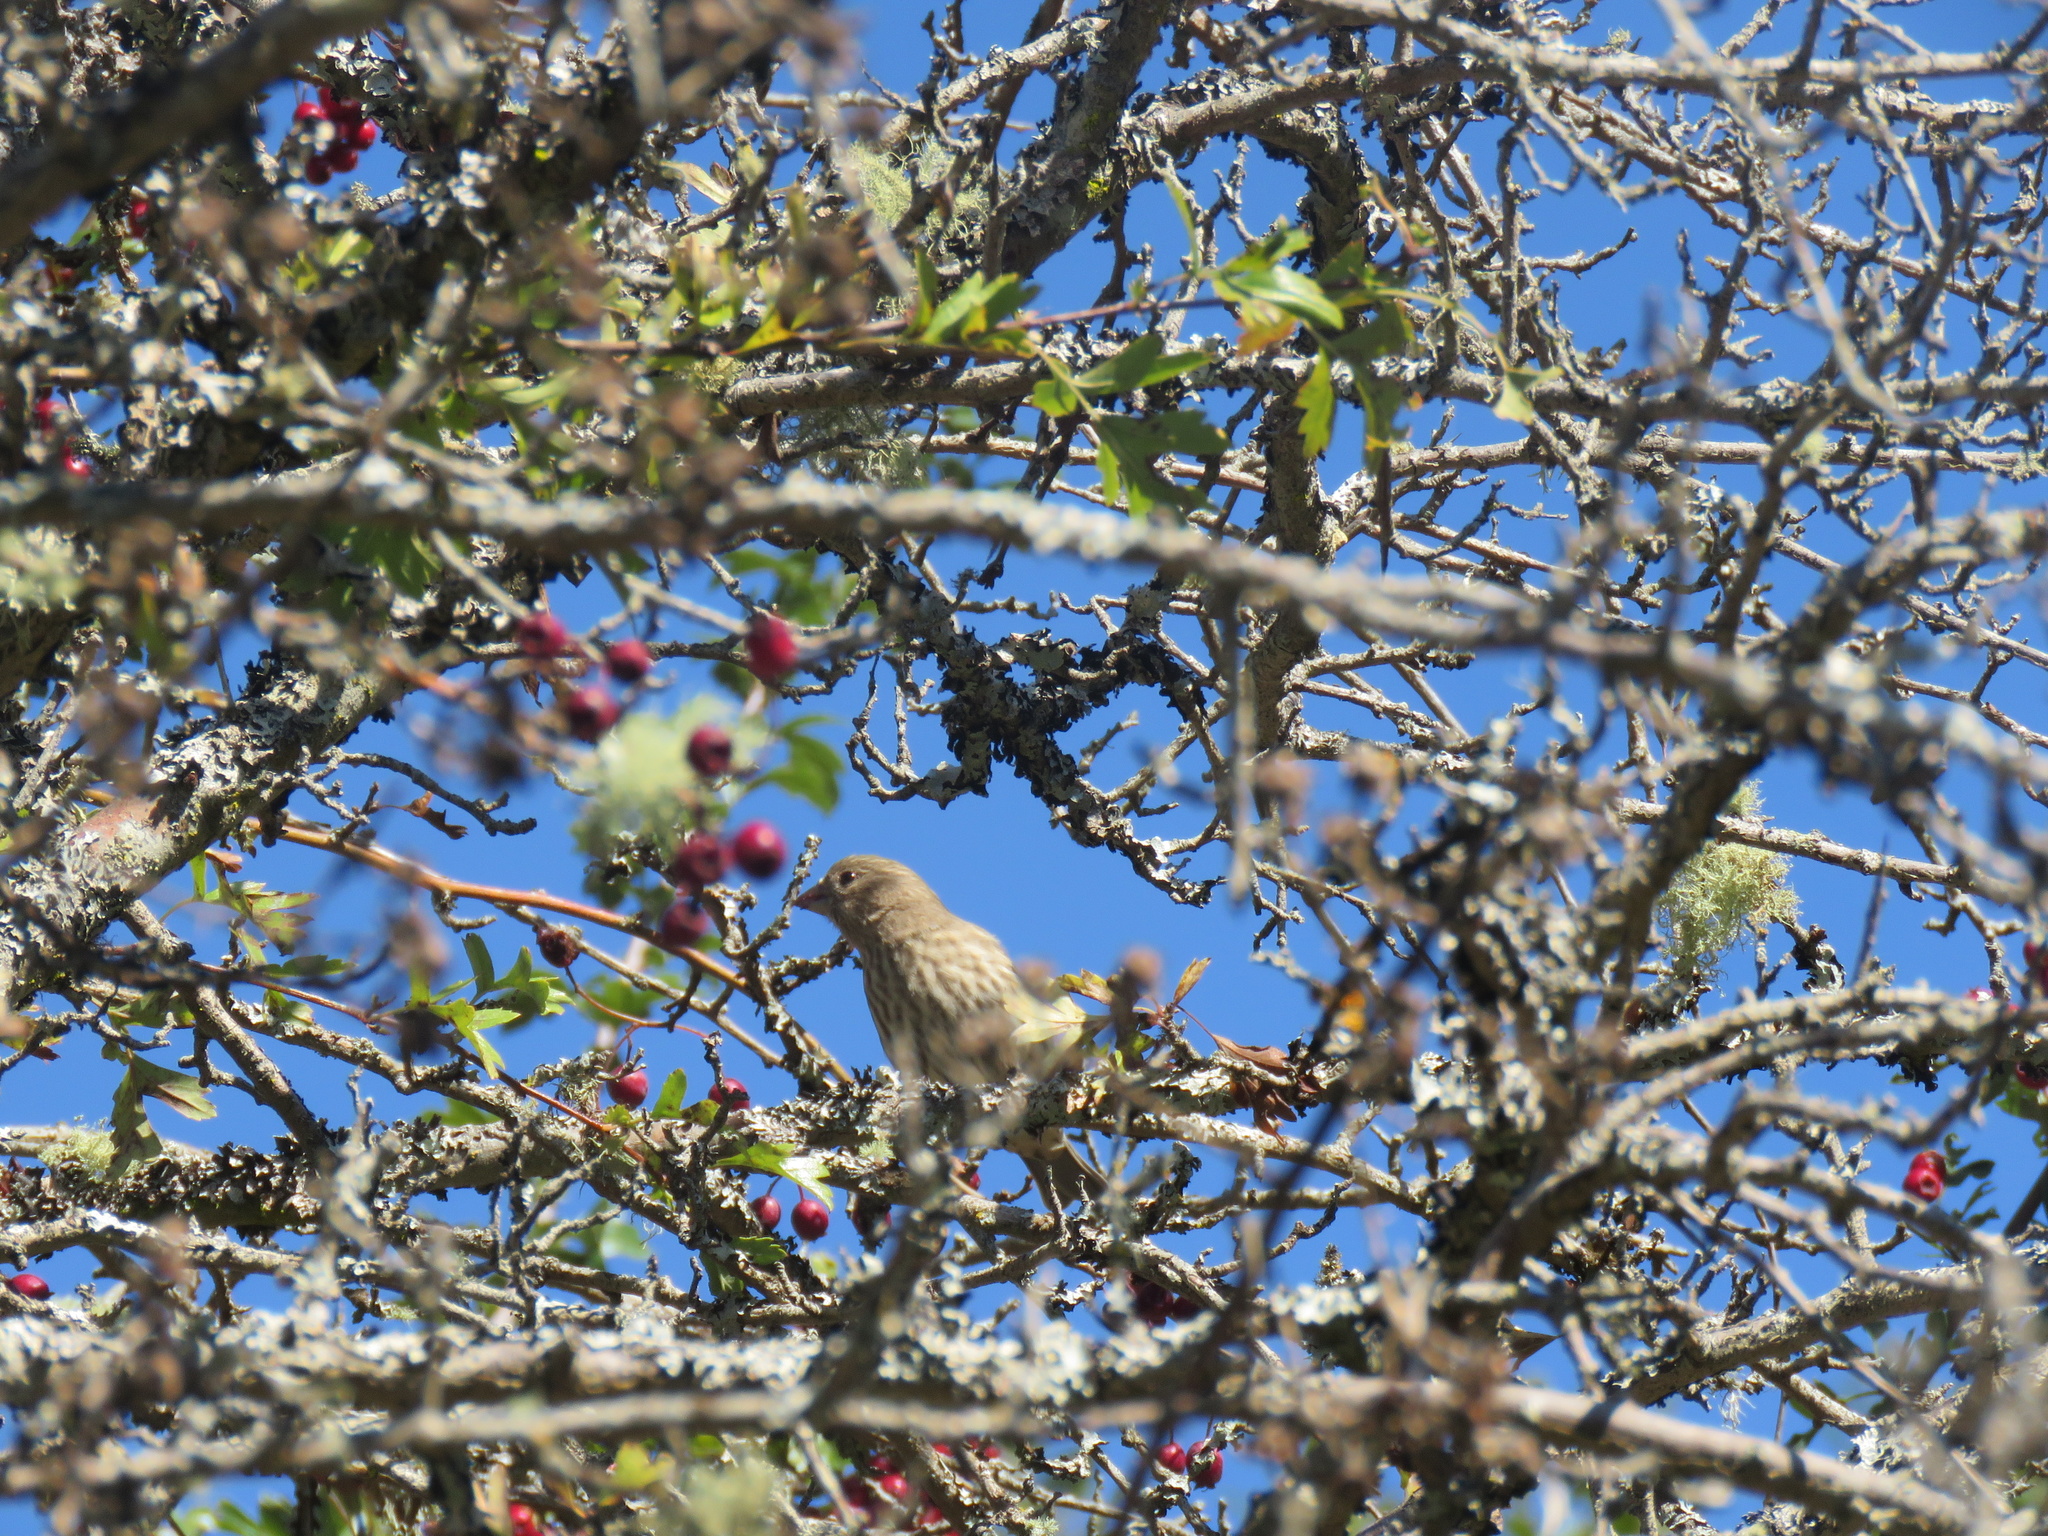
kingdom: Animalia
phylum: Chordata
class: Aves
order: Passeriformes
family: Fringillidae
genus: Haemorhous
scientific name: Haemorhous mexicanus
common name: House finch
